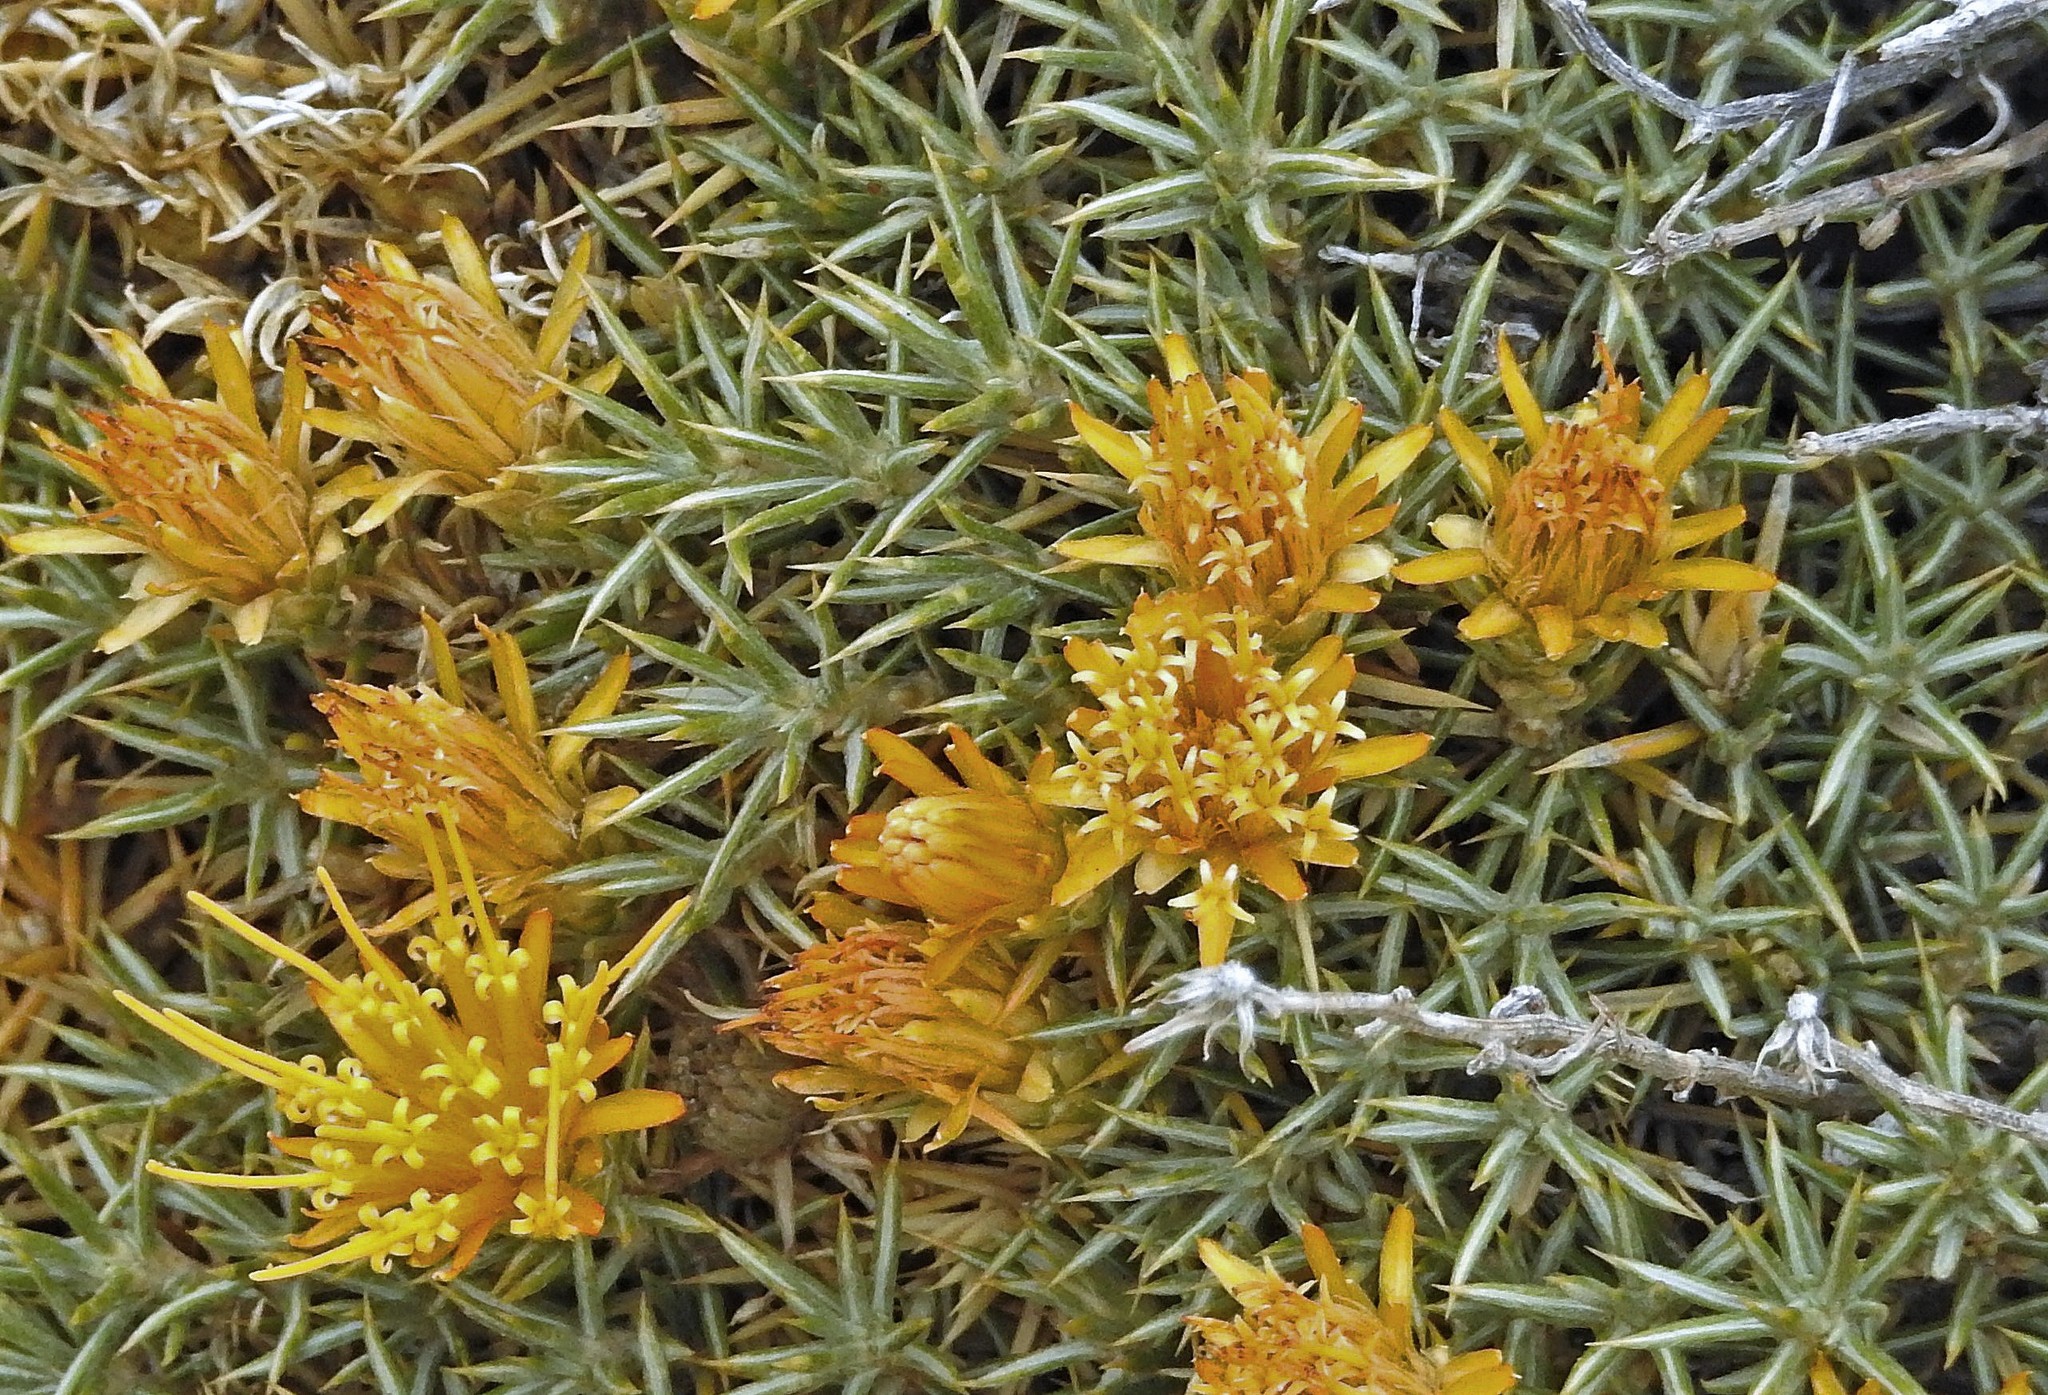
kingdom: Plantae
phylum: Tracheophyta
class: Magnoliopsida
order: Asterales
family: Asteraceae
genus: Chuquiraga
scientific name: Chuquiraga aurea
